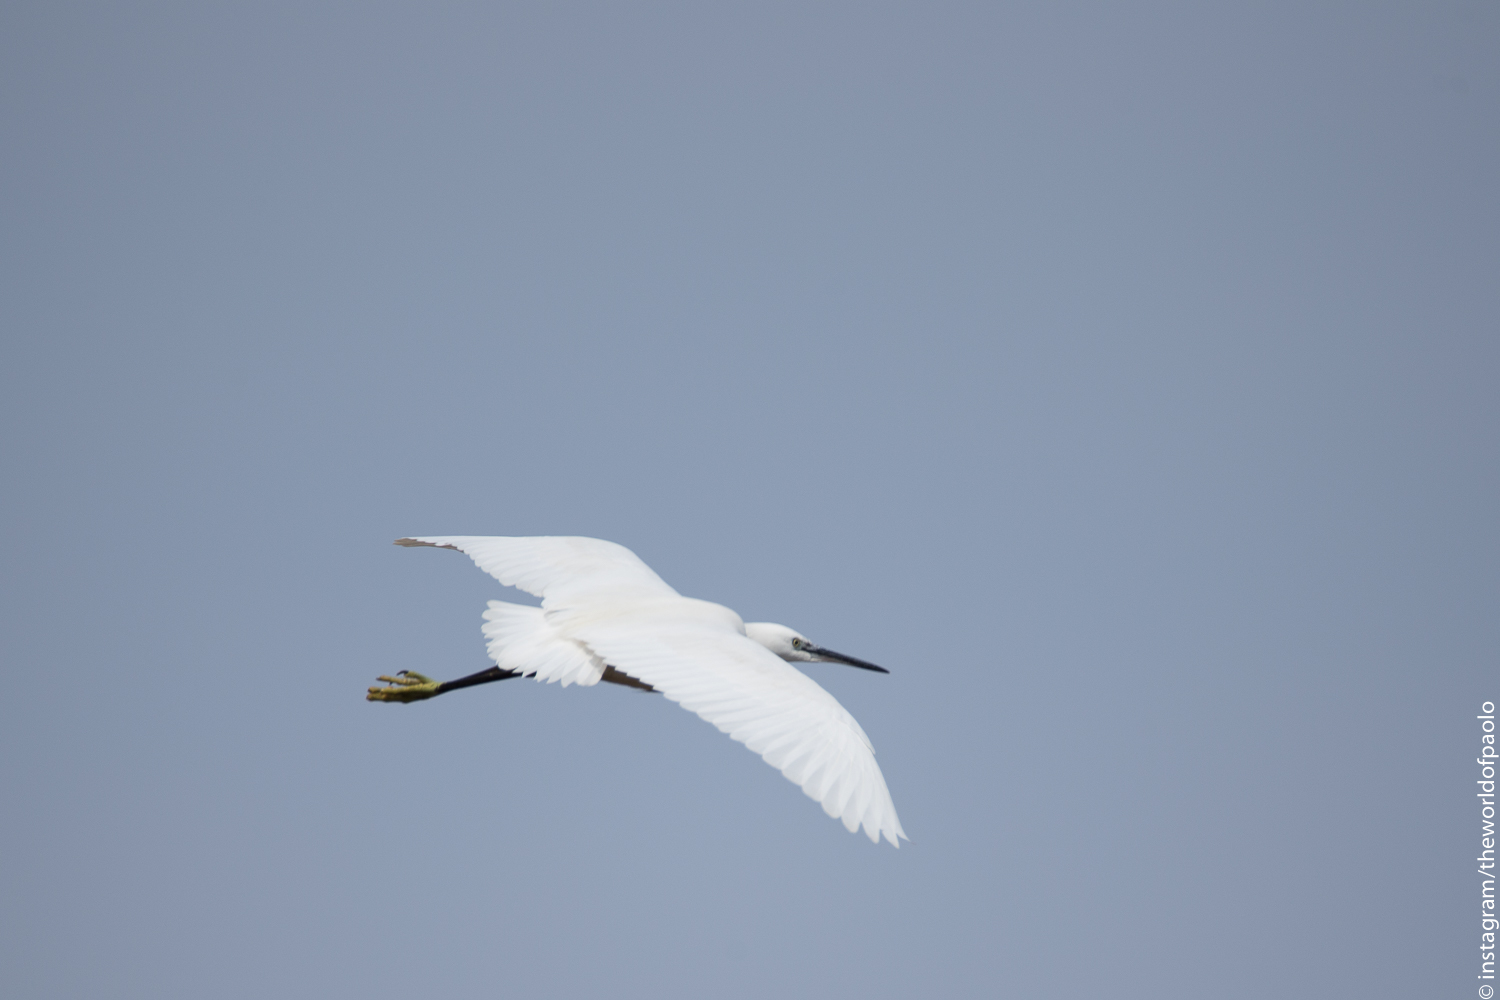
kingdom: Animalia
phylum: Chordata
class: Aves
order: Pelecaniformes
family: Ardeidae
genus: Egretta
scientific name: Egretta garzetta
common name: Little egret
